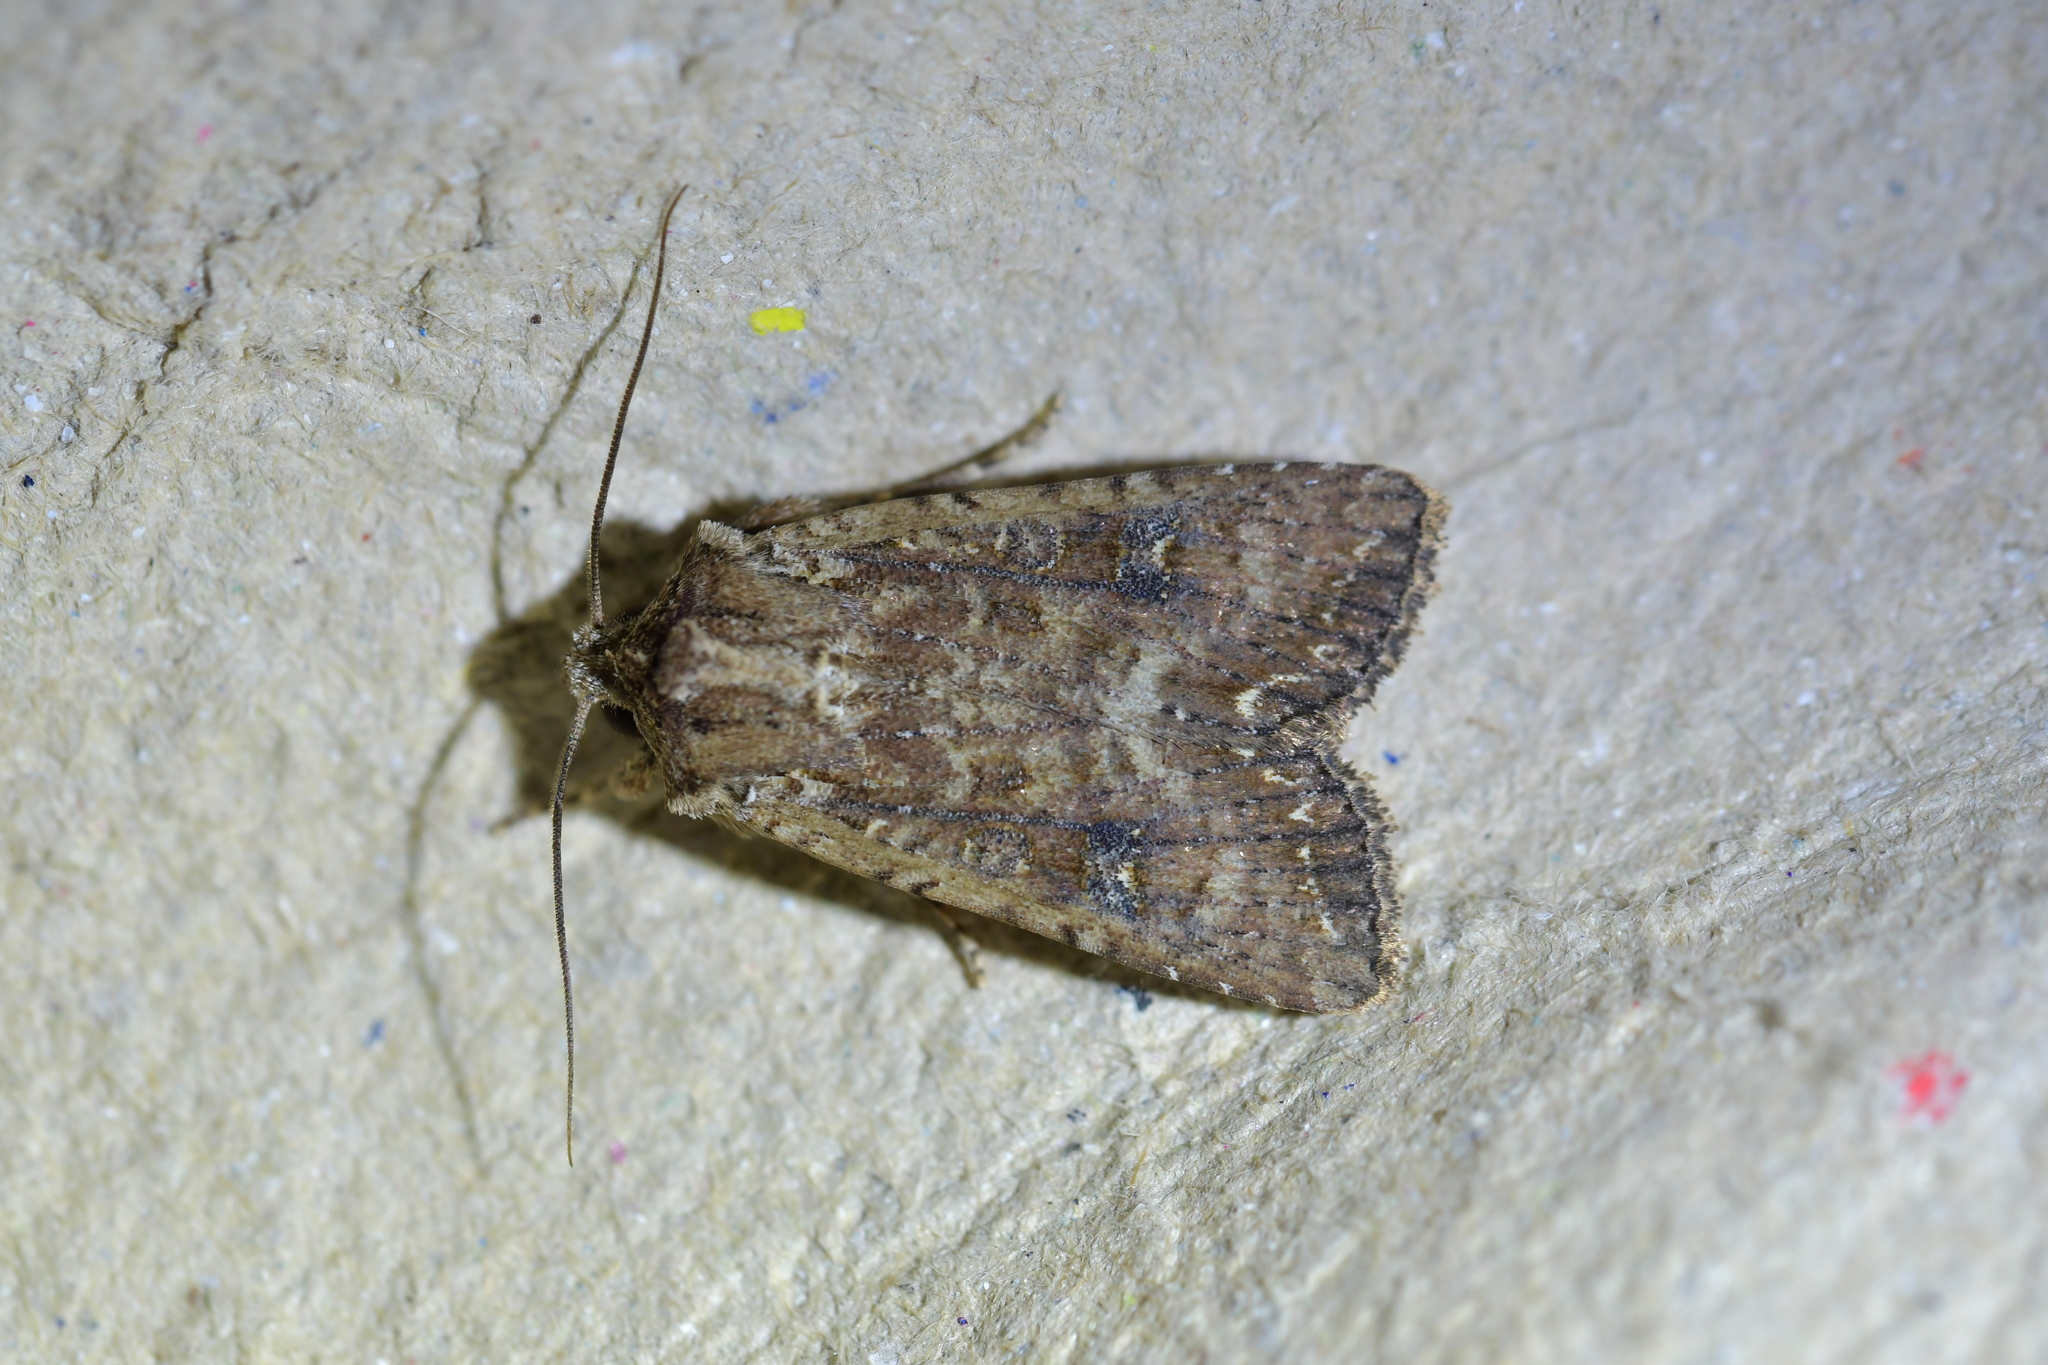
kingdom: Animalia
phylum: Arthropoda
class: Insecta
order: Lepidoptera
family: Noctuidae
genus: Ichneutica
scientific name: Ichneutica morosa
